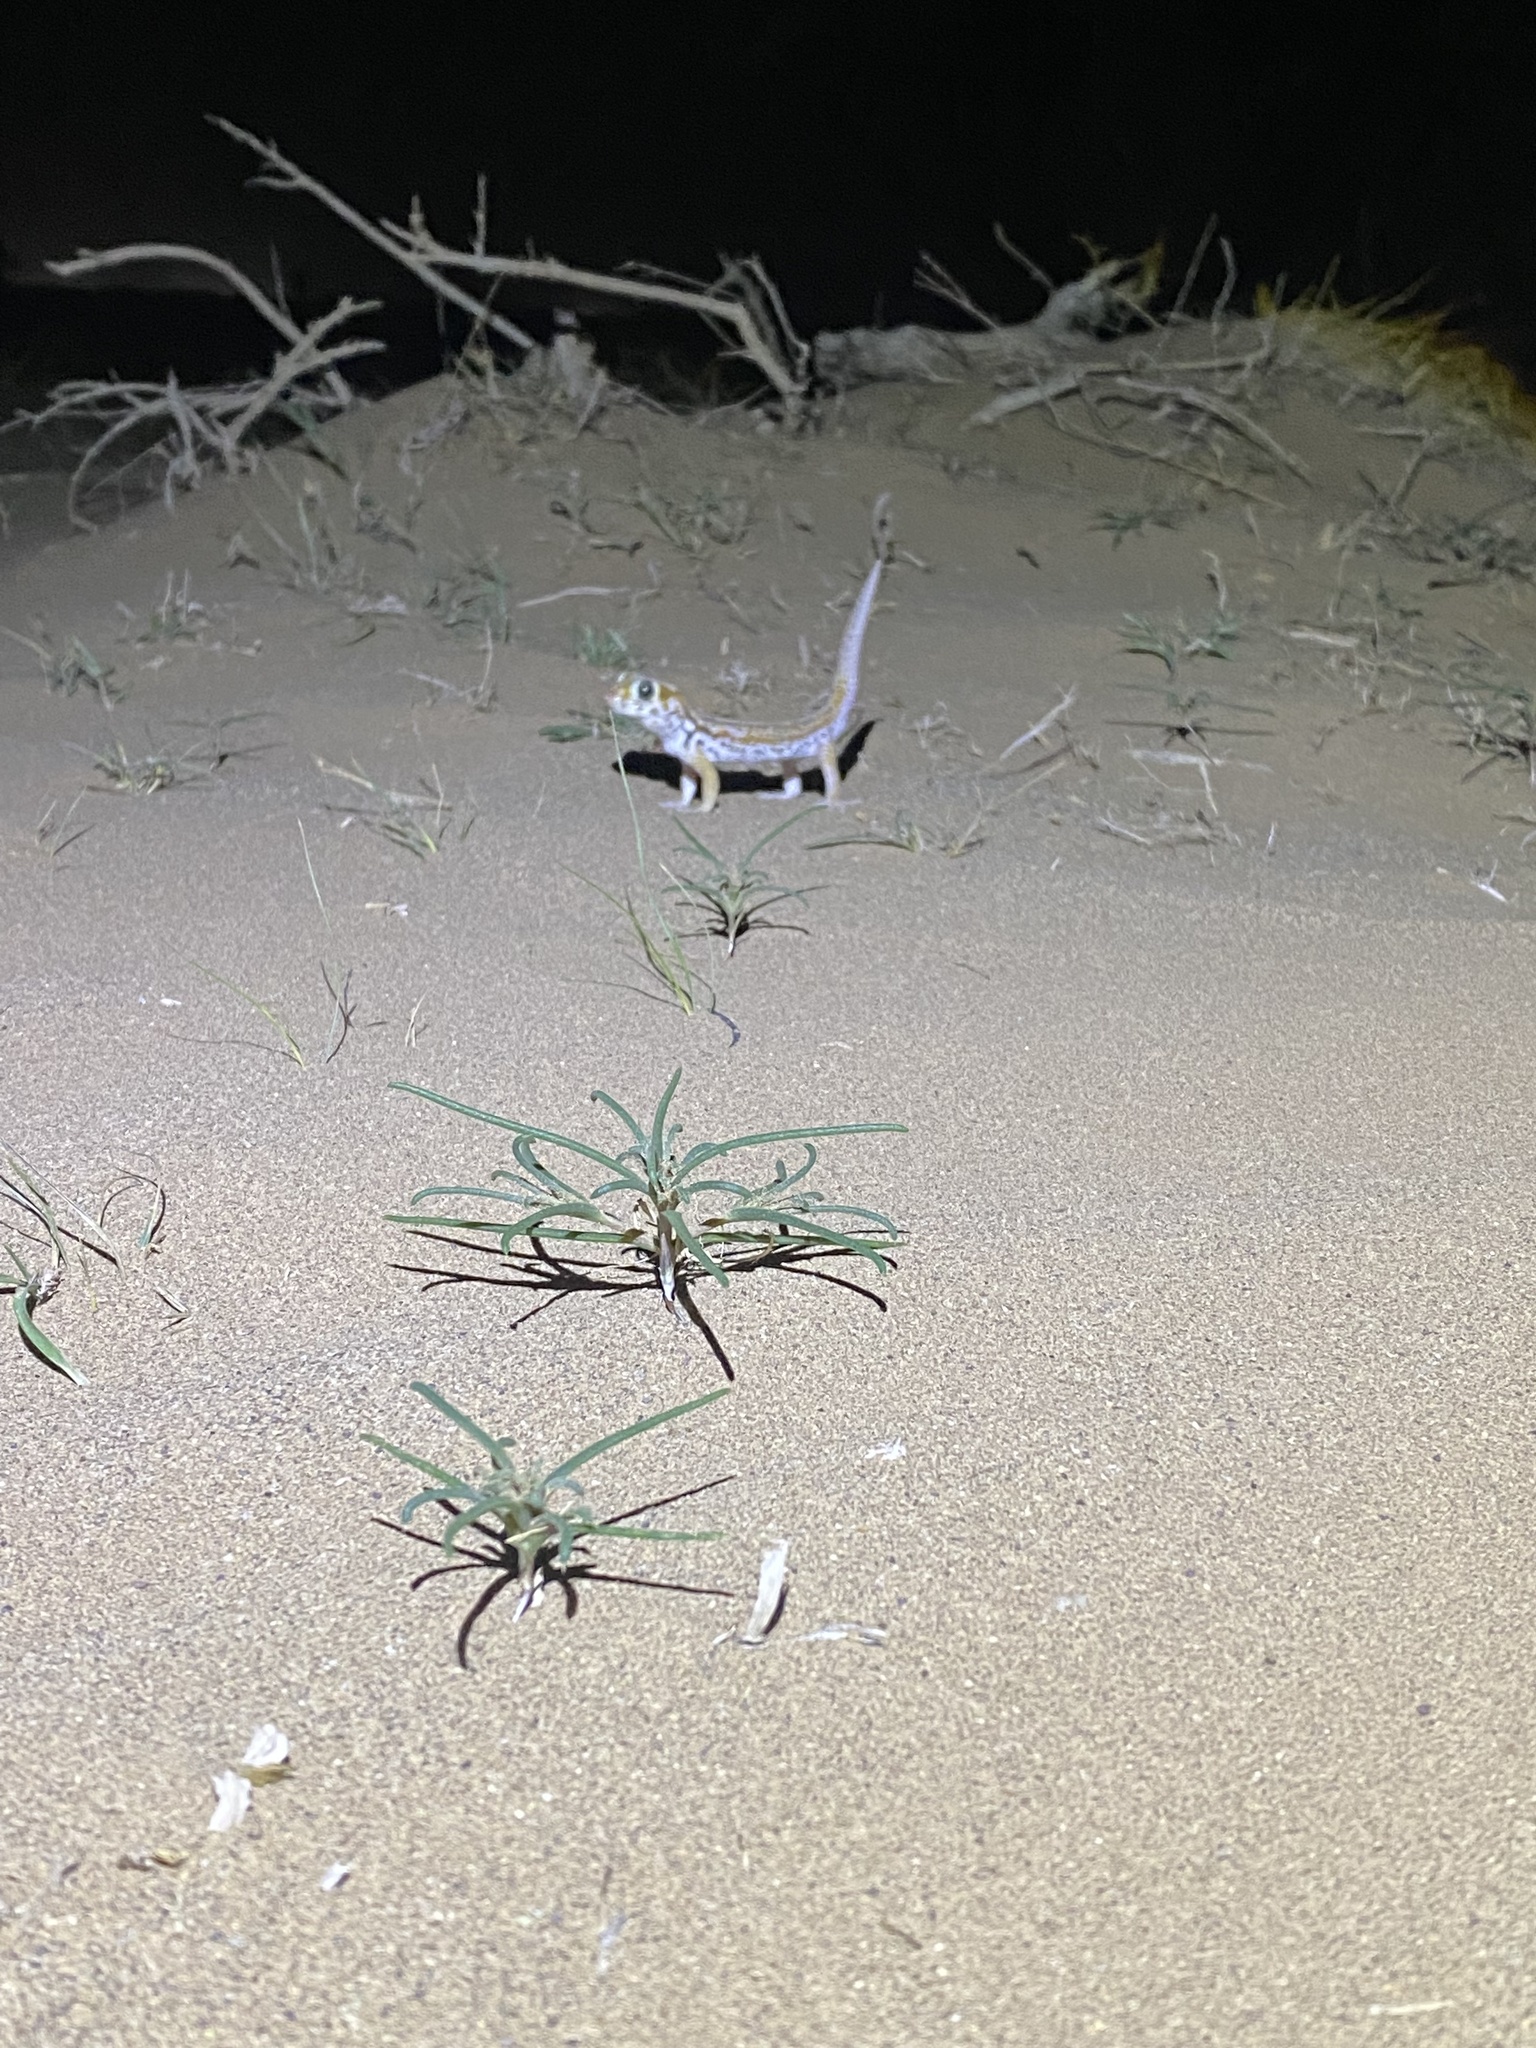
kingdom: Animalia
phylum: Chordata
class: Squamata
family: Sphaerodactylidae
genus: Teratoscincus
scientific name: Teratoscincus keyserlingii
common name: Frog-eyed gecko
